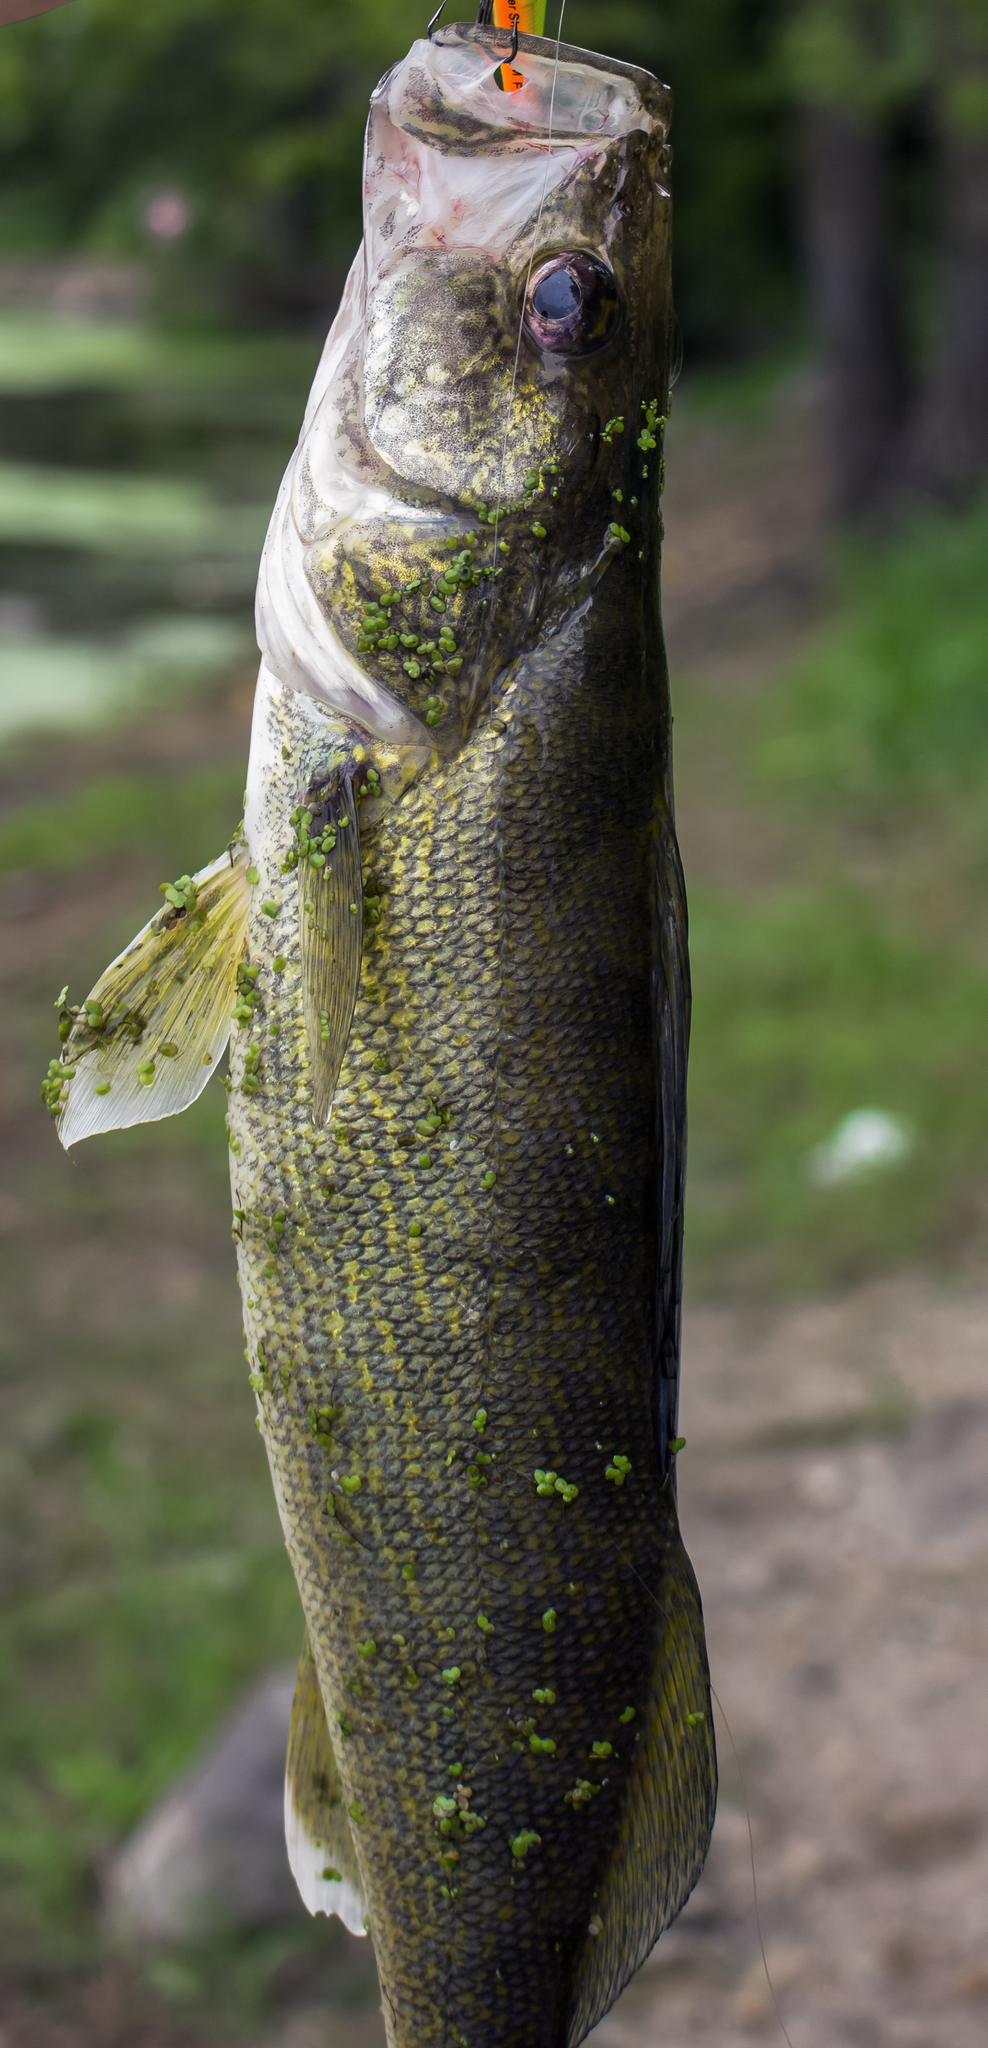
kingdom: Animalia
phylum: Chordata
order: Perciformes
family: Percidae
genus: Sander
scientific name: Sander vitreus
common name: Walleye
